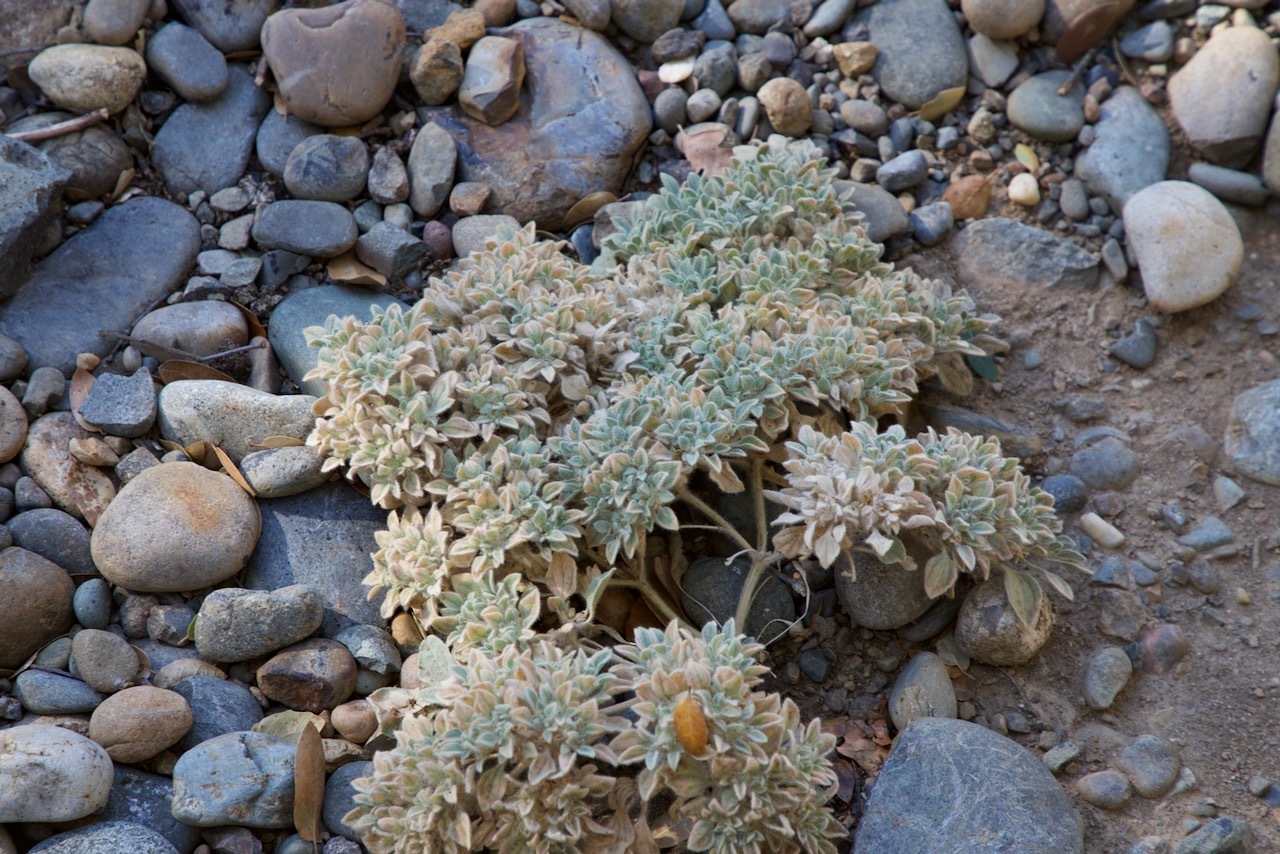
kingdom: Plantae
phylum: Tracheophyta
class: Magnoliopsida
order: Malpighiales
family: Euphorbiaceae
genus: Croton
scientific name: Croton setiger
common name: Dove weed
